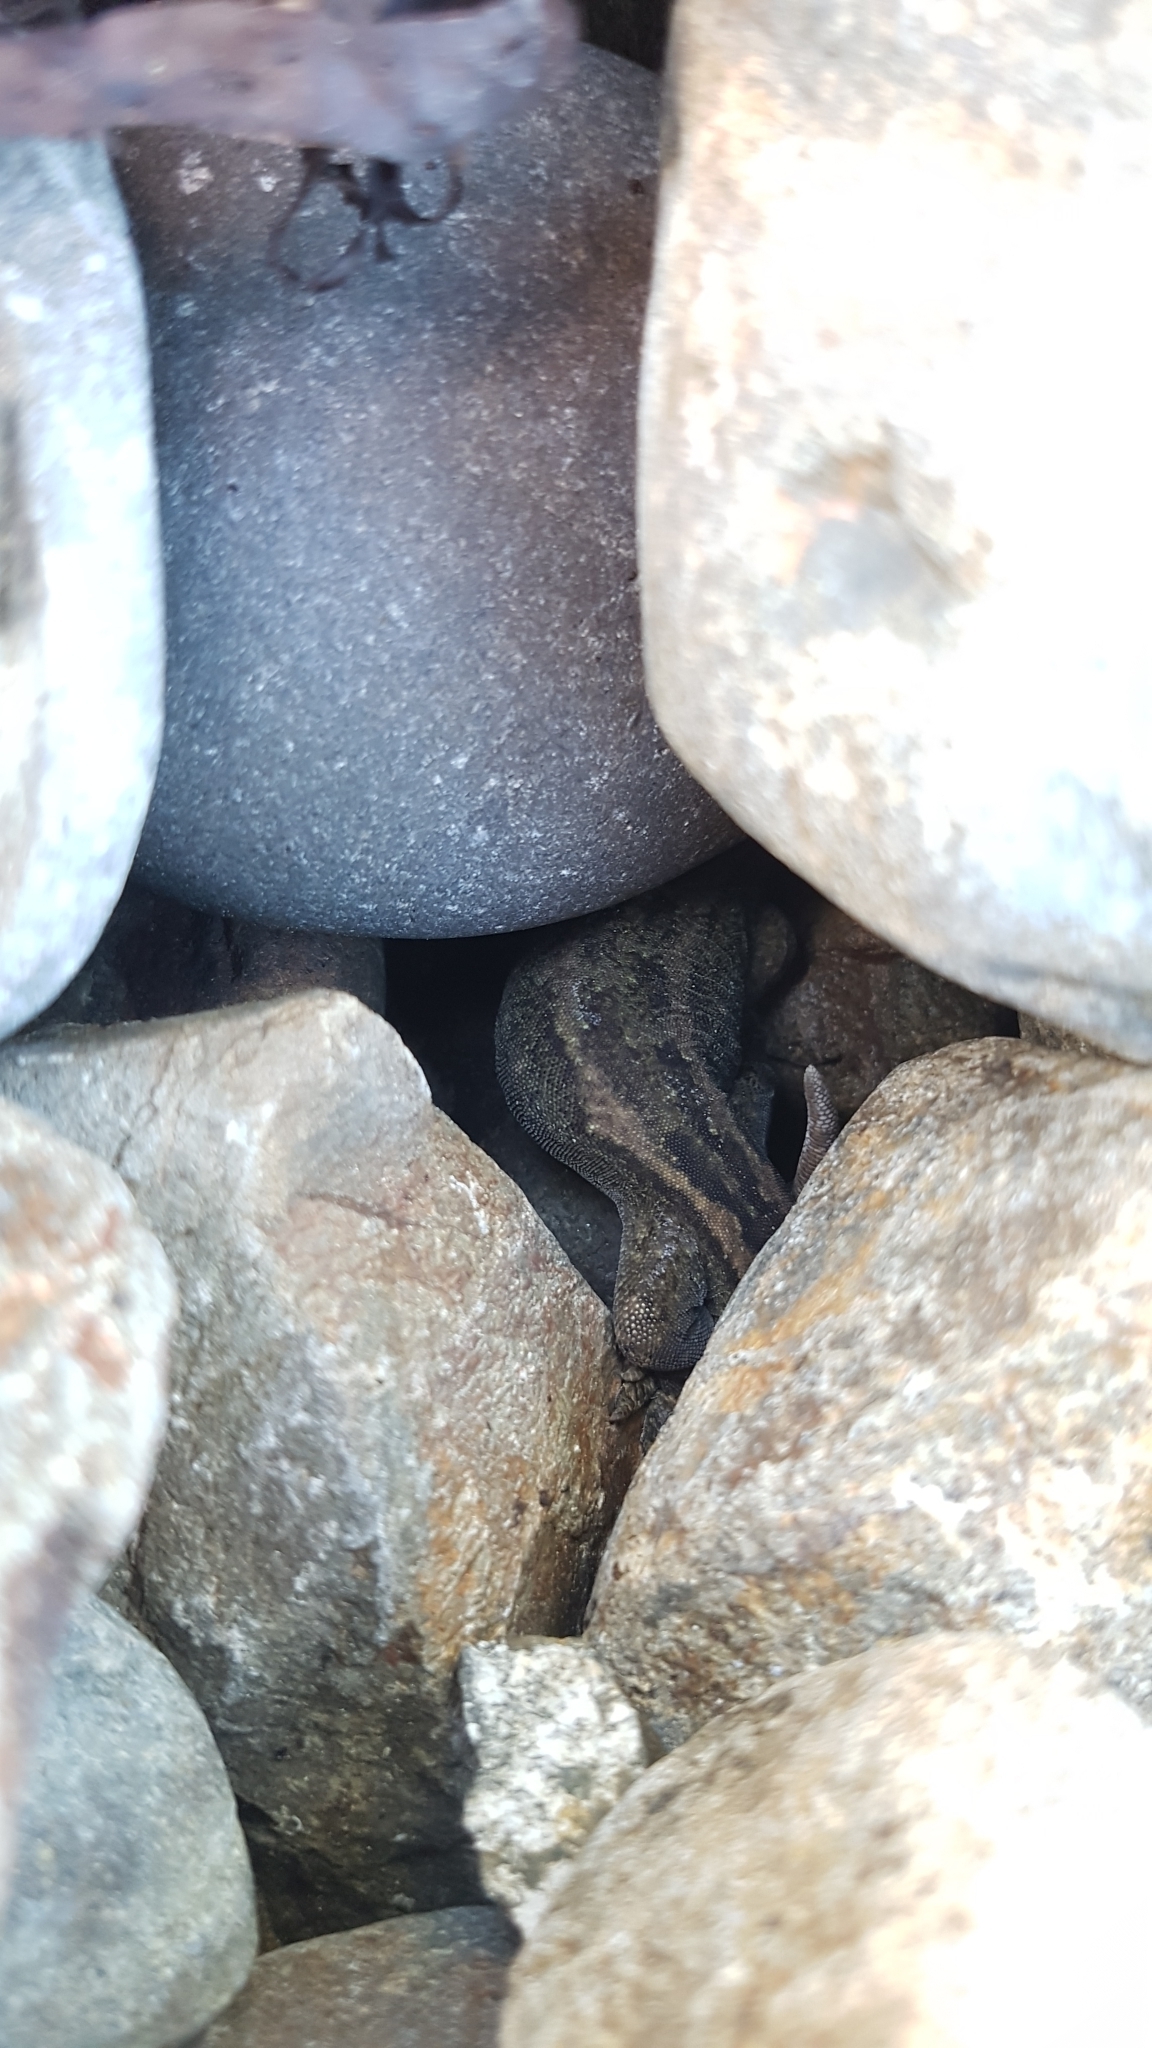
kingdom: Animalia
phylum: Chordata
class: Squamata
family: Diplodactylidae
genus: Woodworthia
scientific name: Woodworthia maculata
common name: Raukawa gecko
